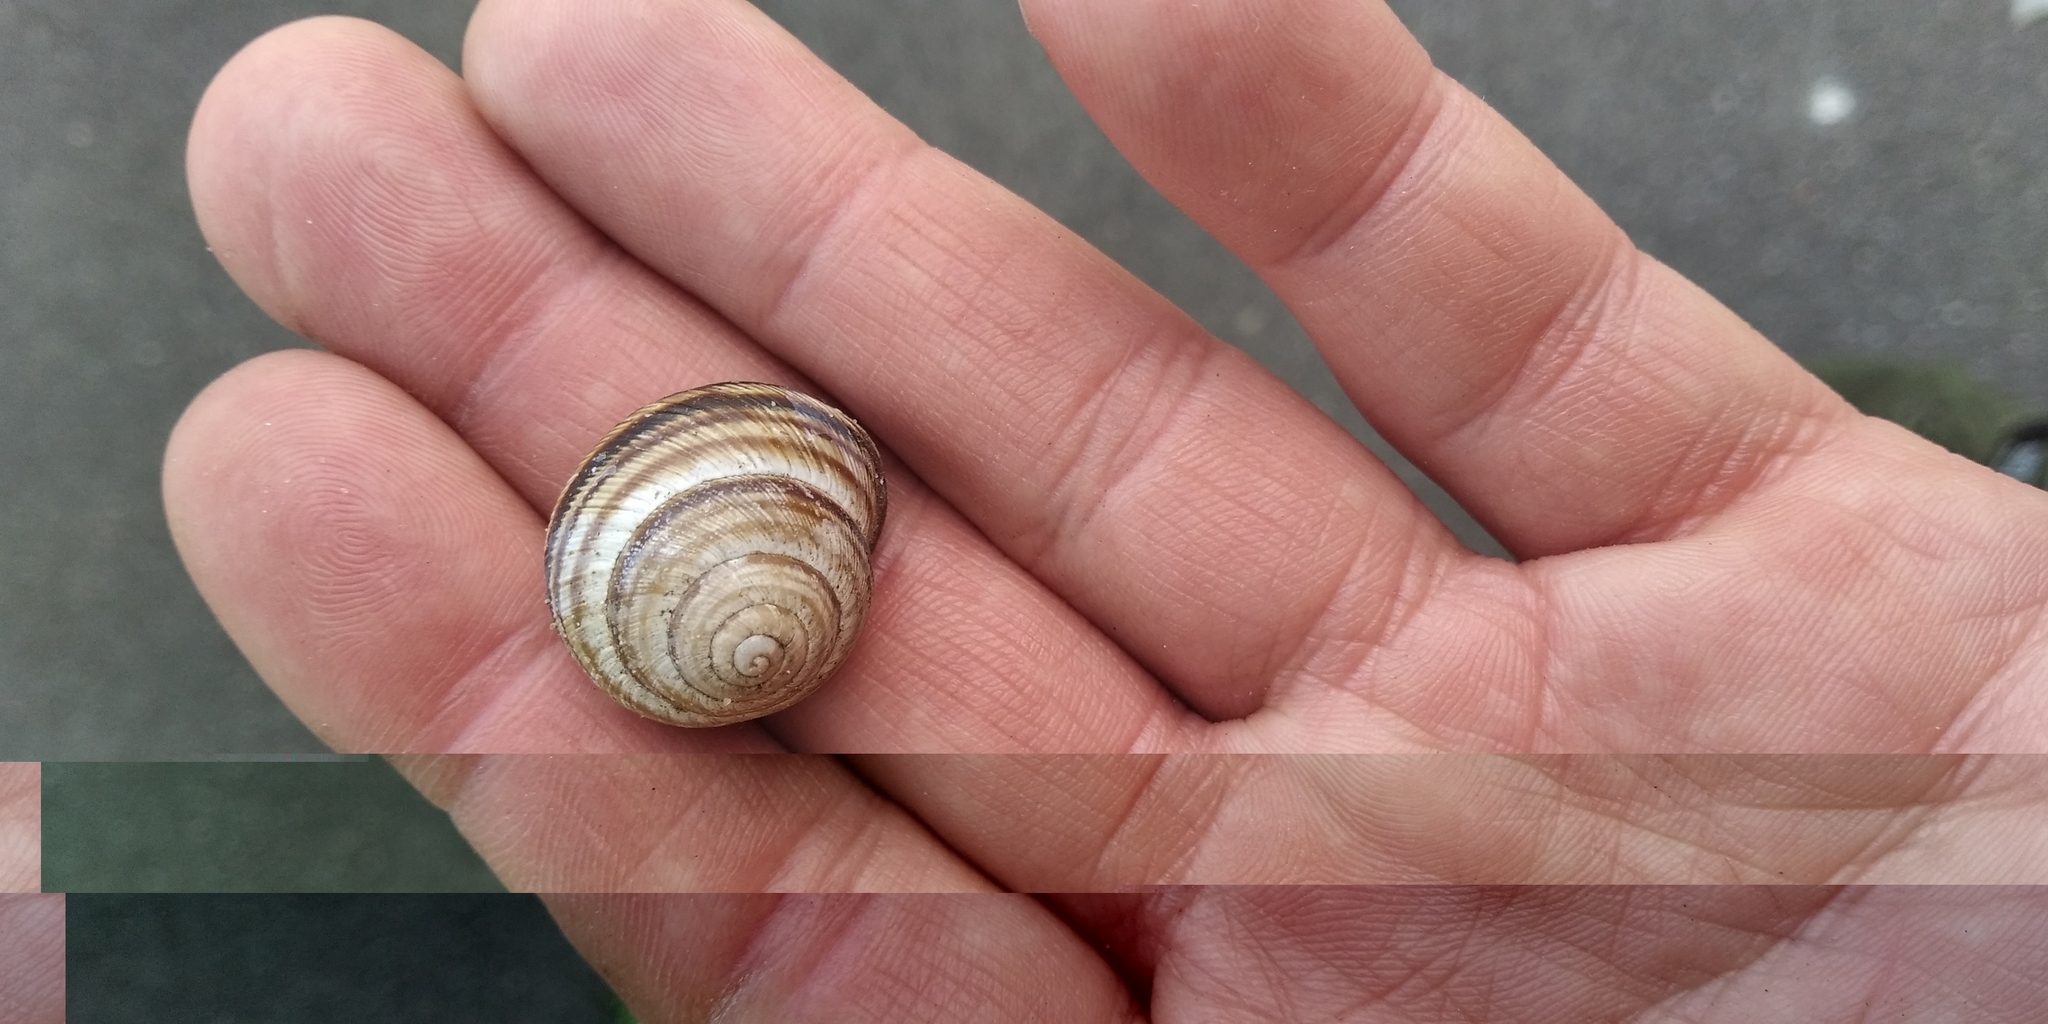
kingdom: Animalia
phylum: Mollusca
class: Gastropoda
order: Stylommatophora
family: Helicidae
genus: Caucasotachea
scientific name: Caucasotachea vindobonensis
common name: European helicid land snail
